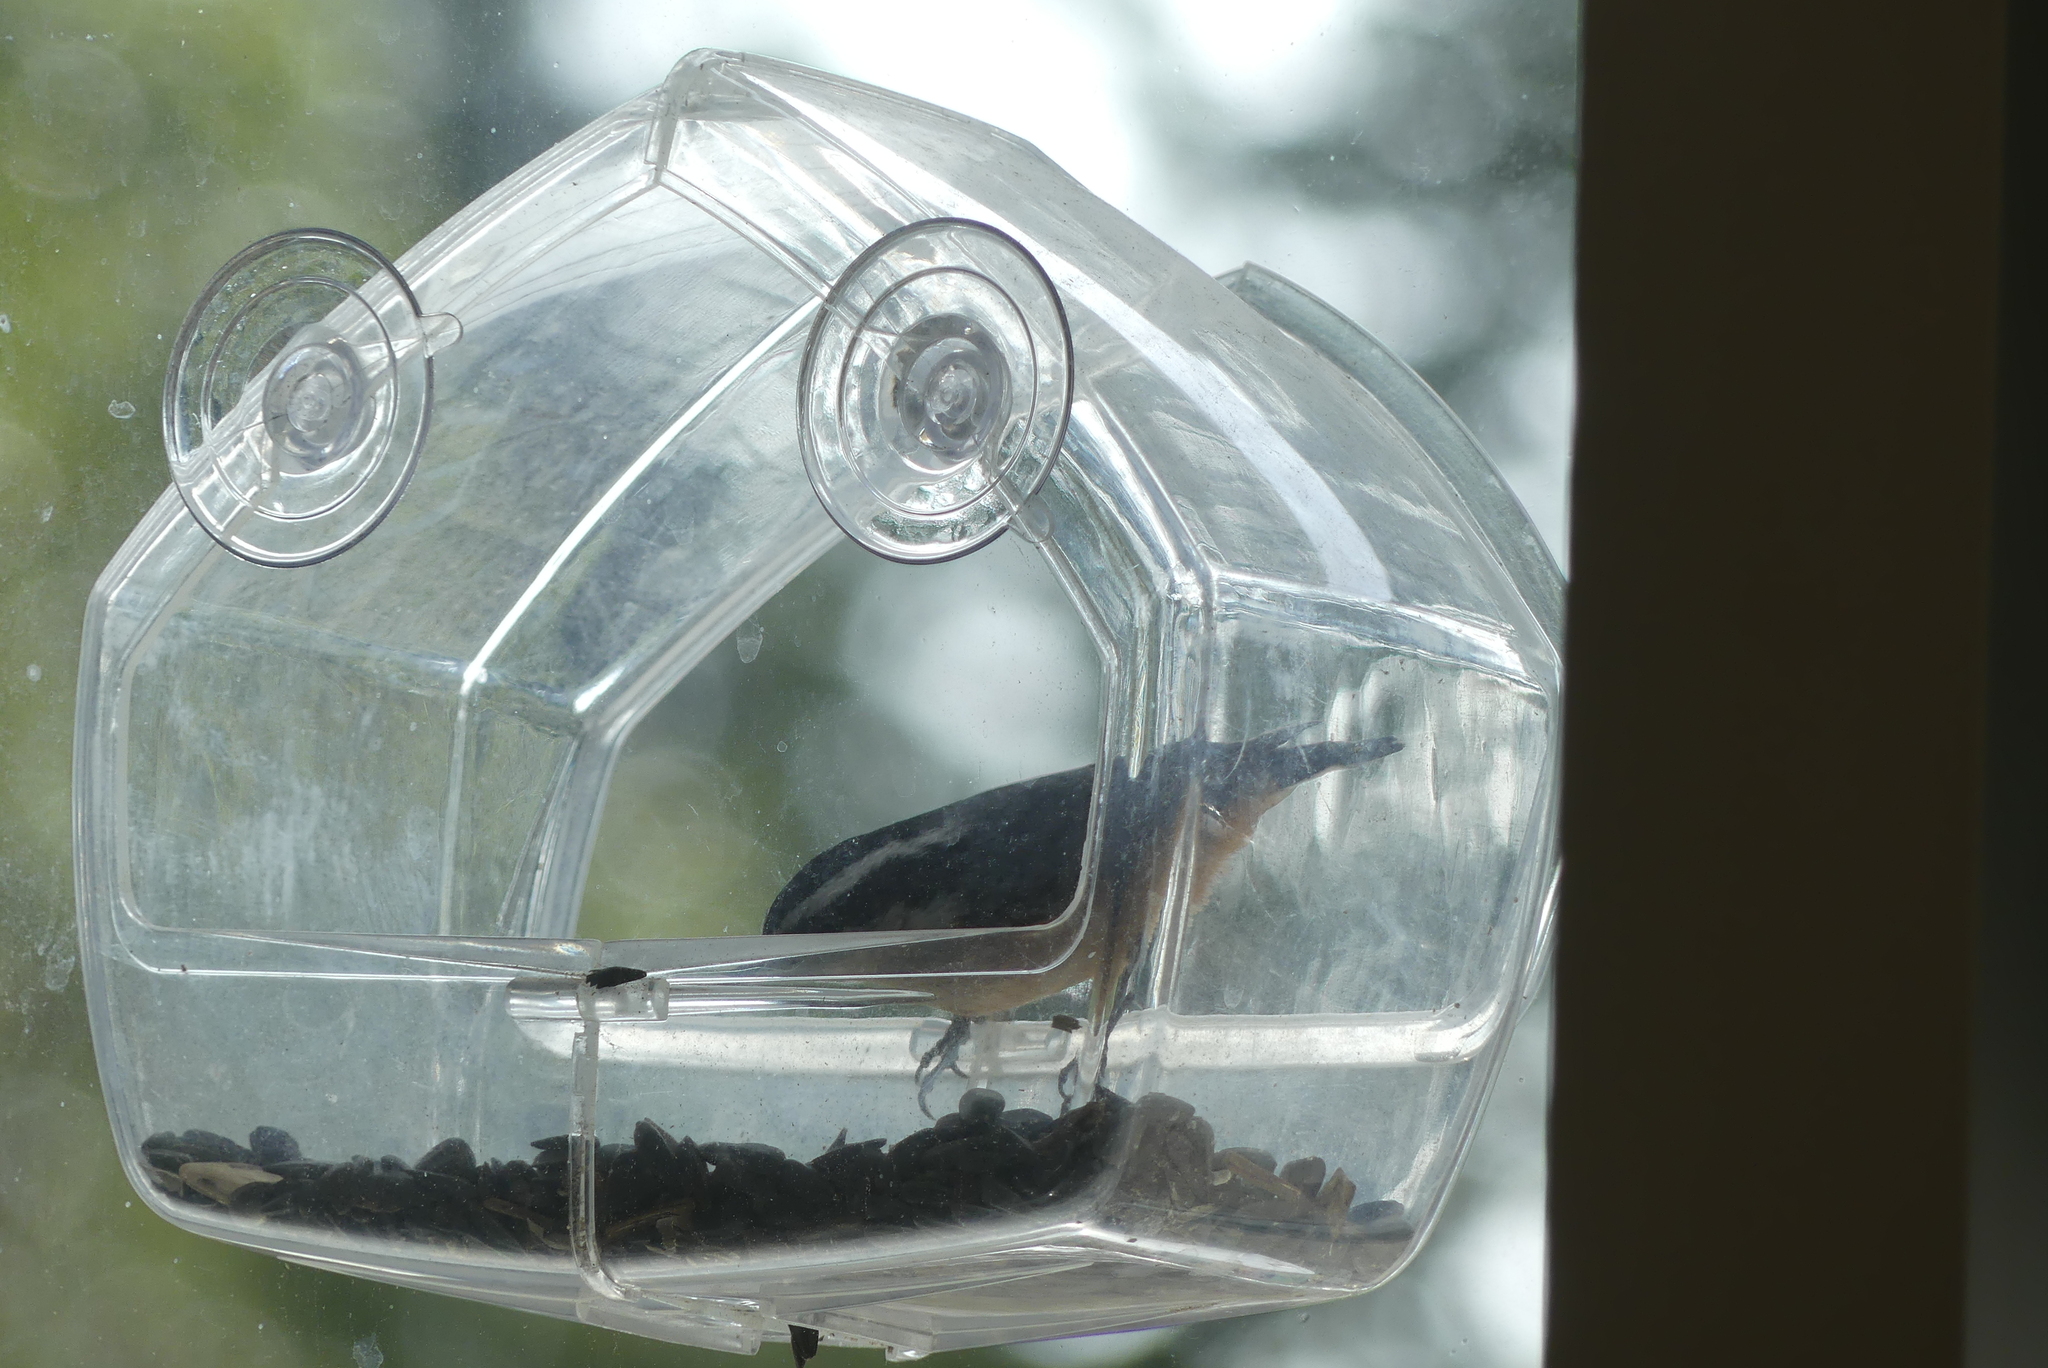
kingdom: Animalia
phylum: Chordata
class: Aves
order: Passeriformes
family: Sittidae
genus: Sitta
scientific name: Sitta canadensis
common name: Red-breasted nuthatch
